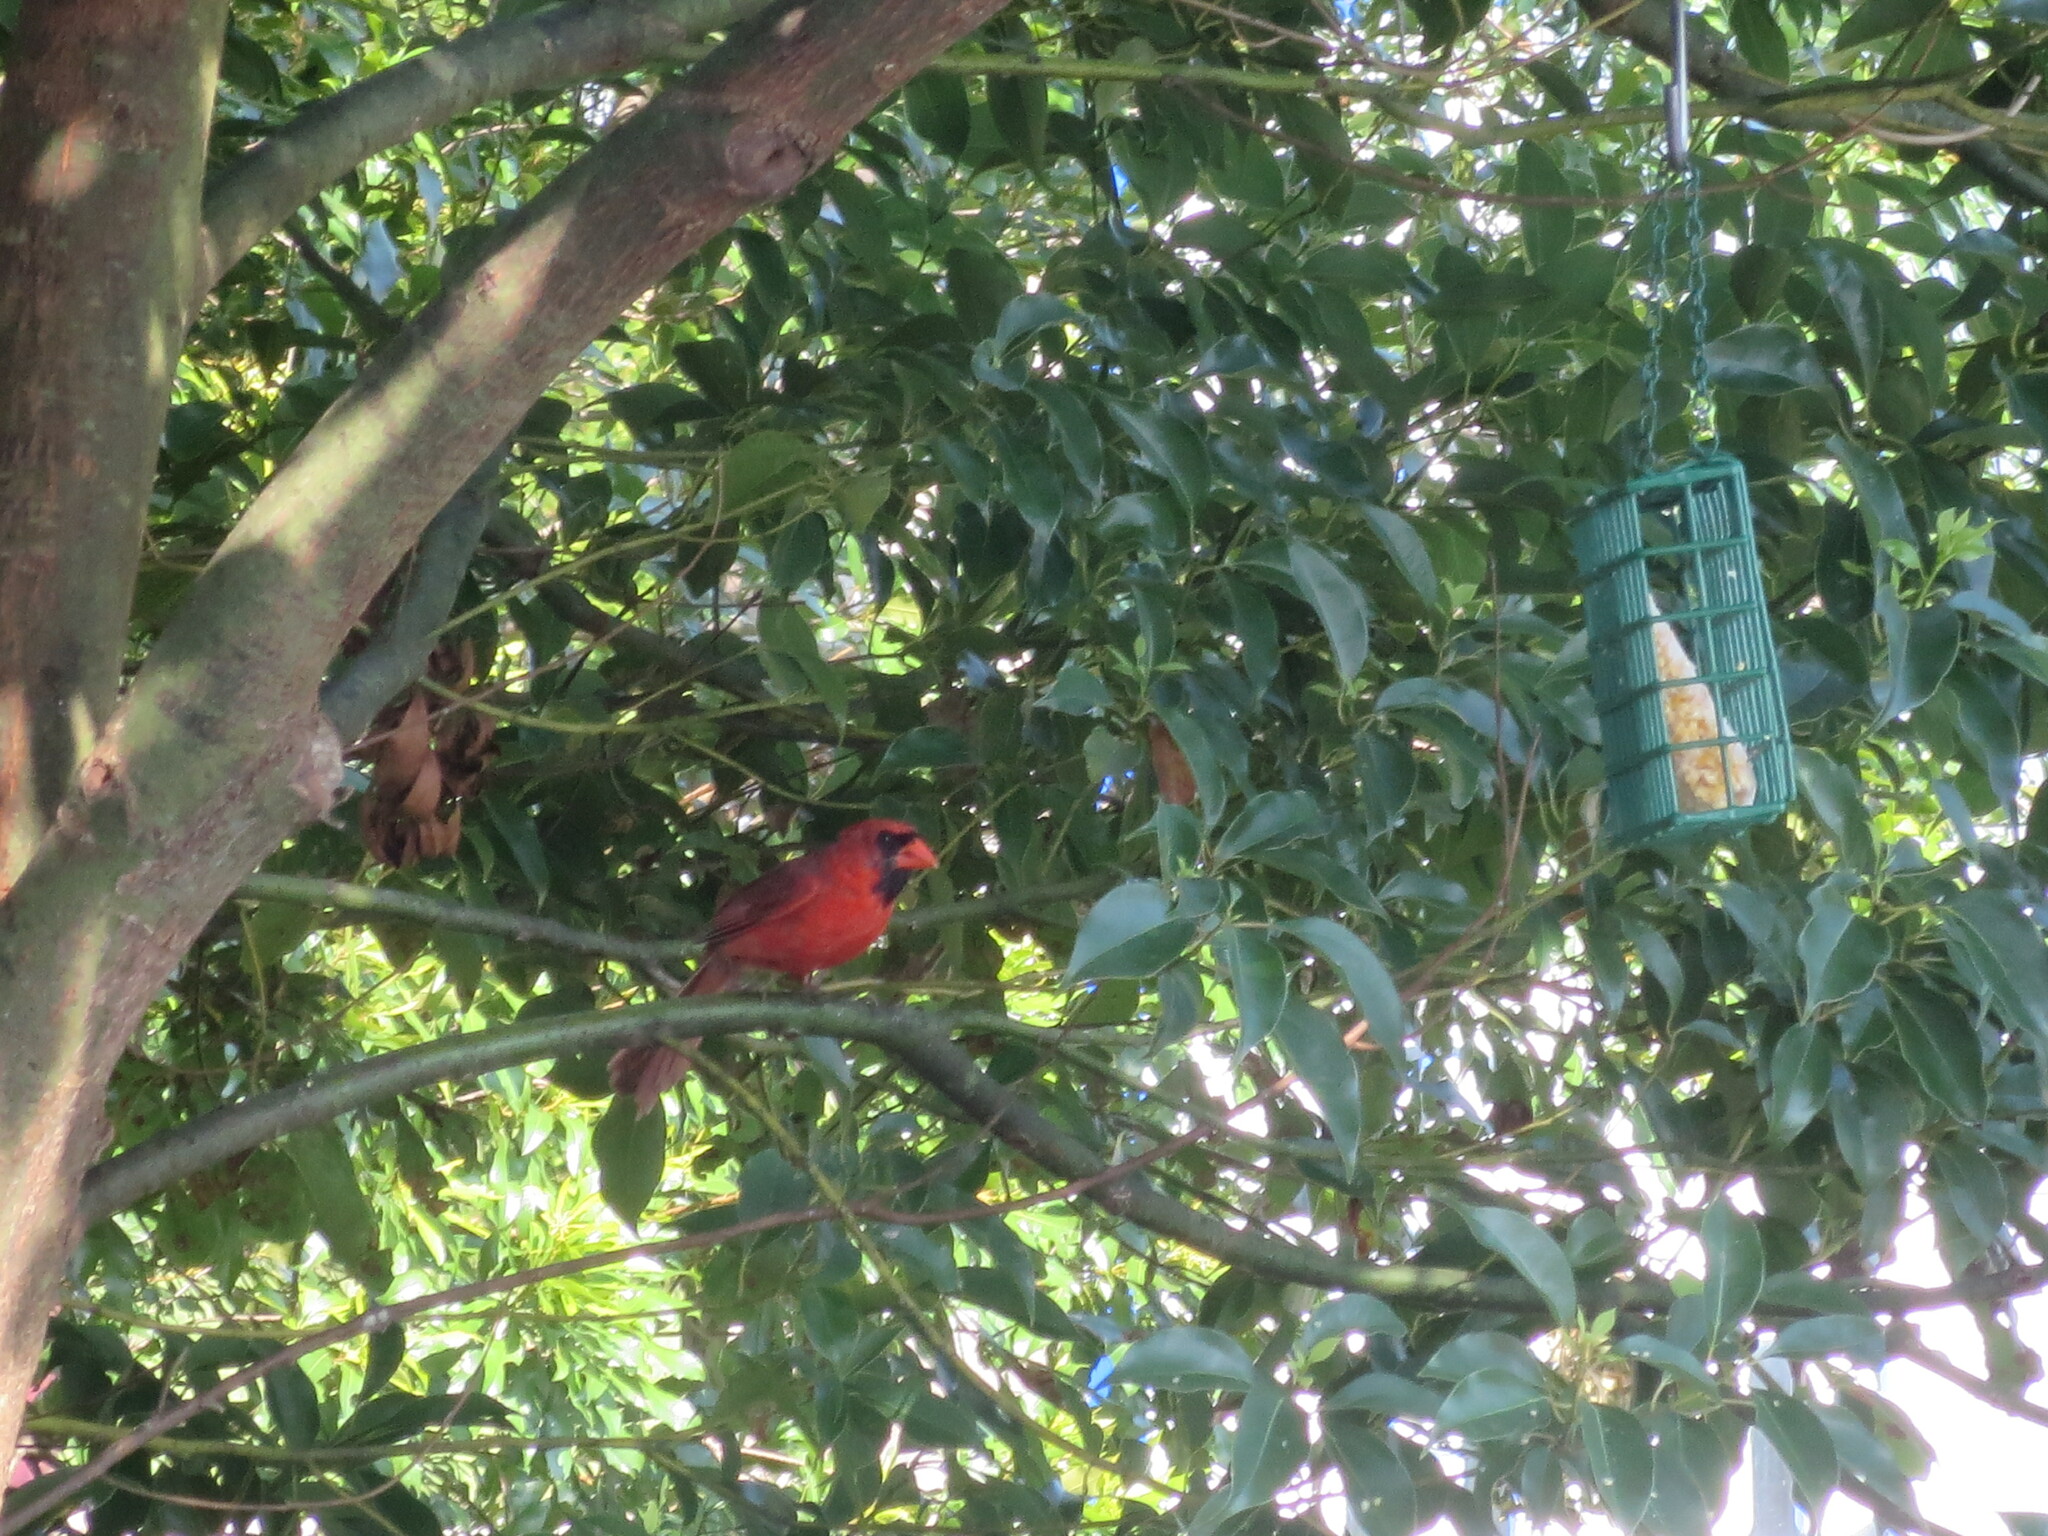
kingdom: Animalia
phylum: Chordata
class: Aves
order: Passeriformes
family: Cardinalidae
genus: Cardinalis
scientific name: Cardinalis cardinalis
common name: Northern cardinal
